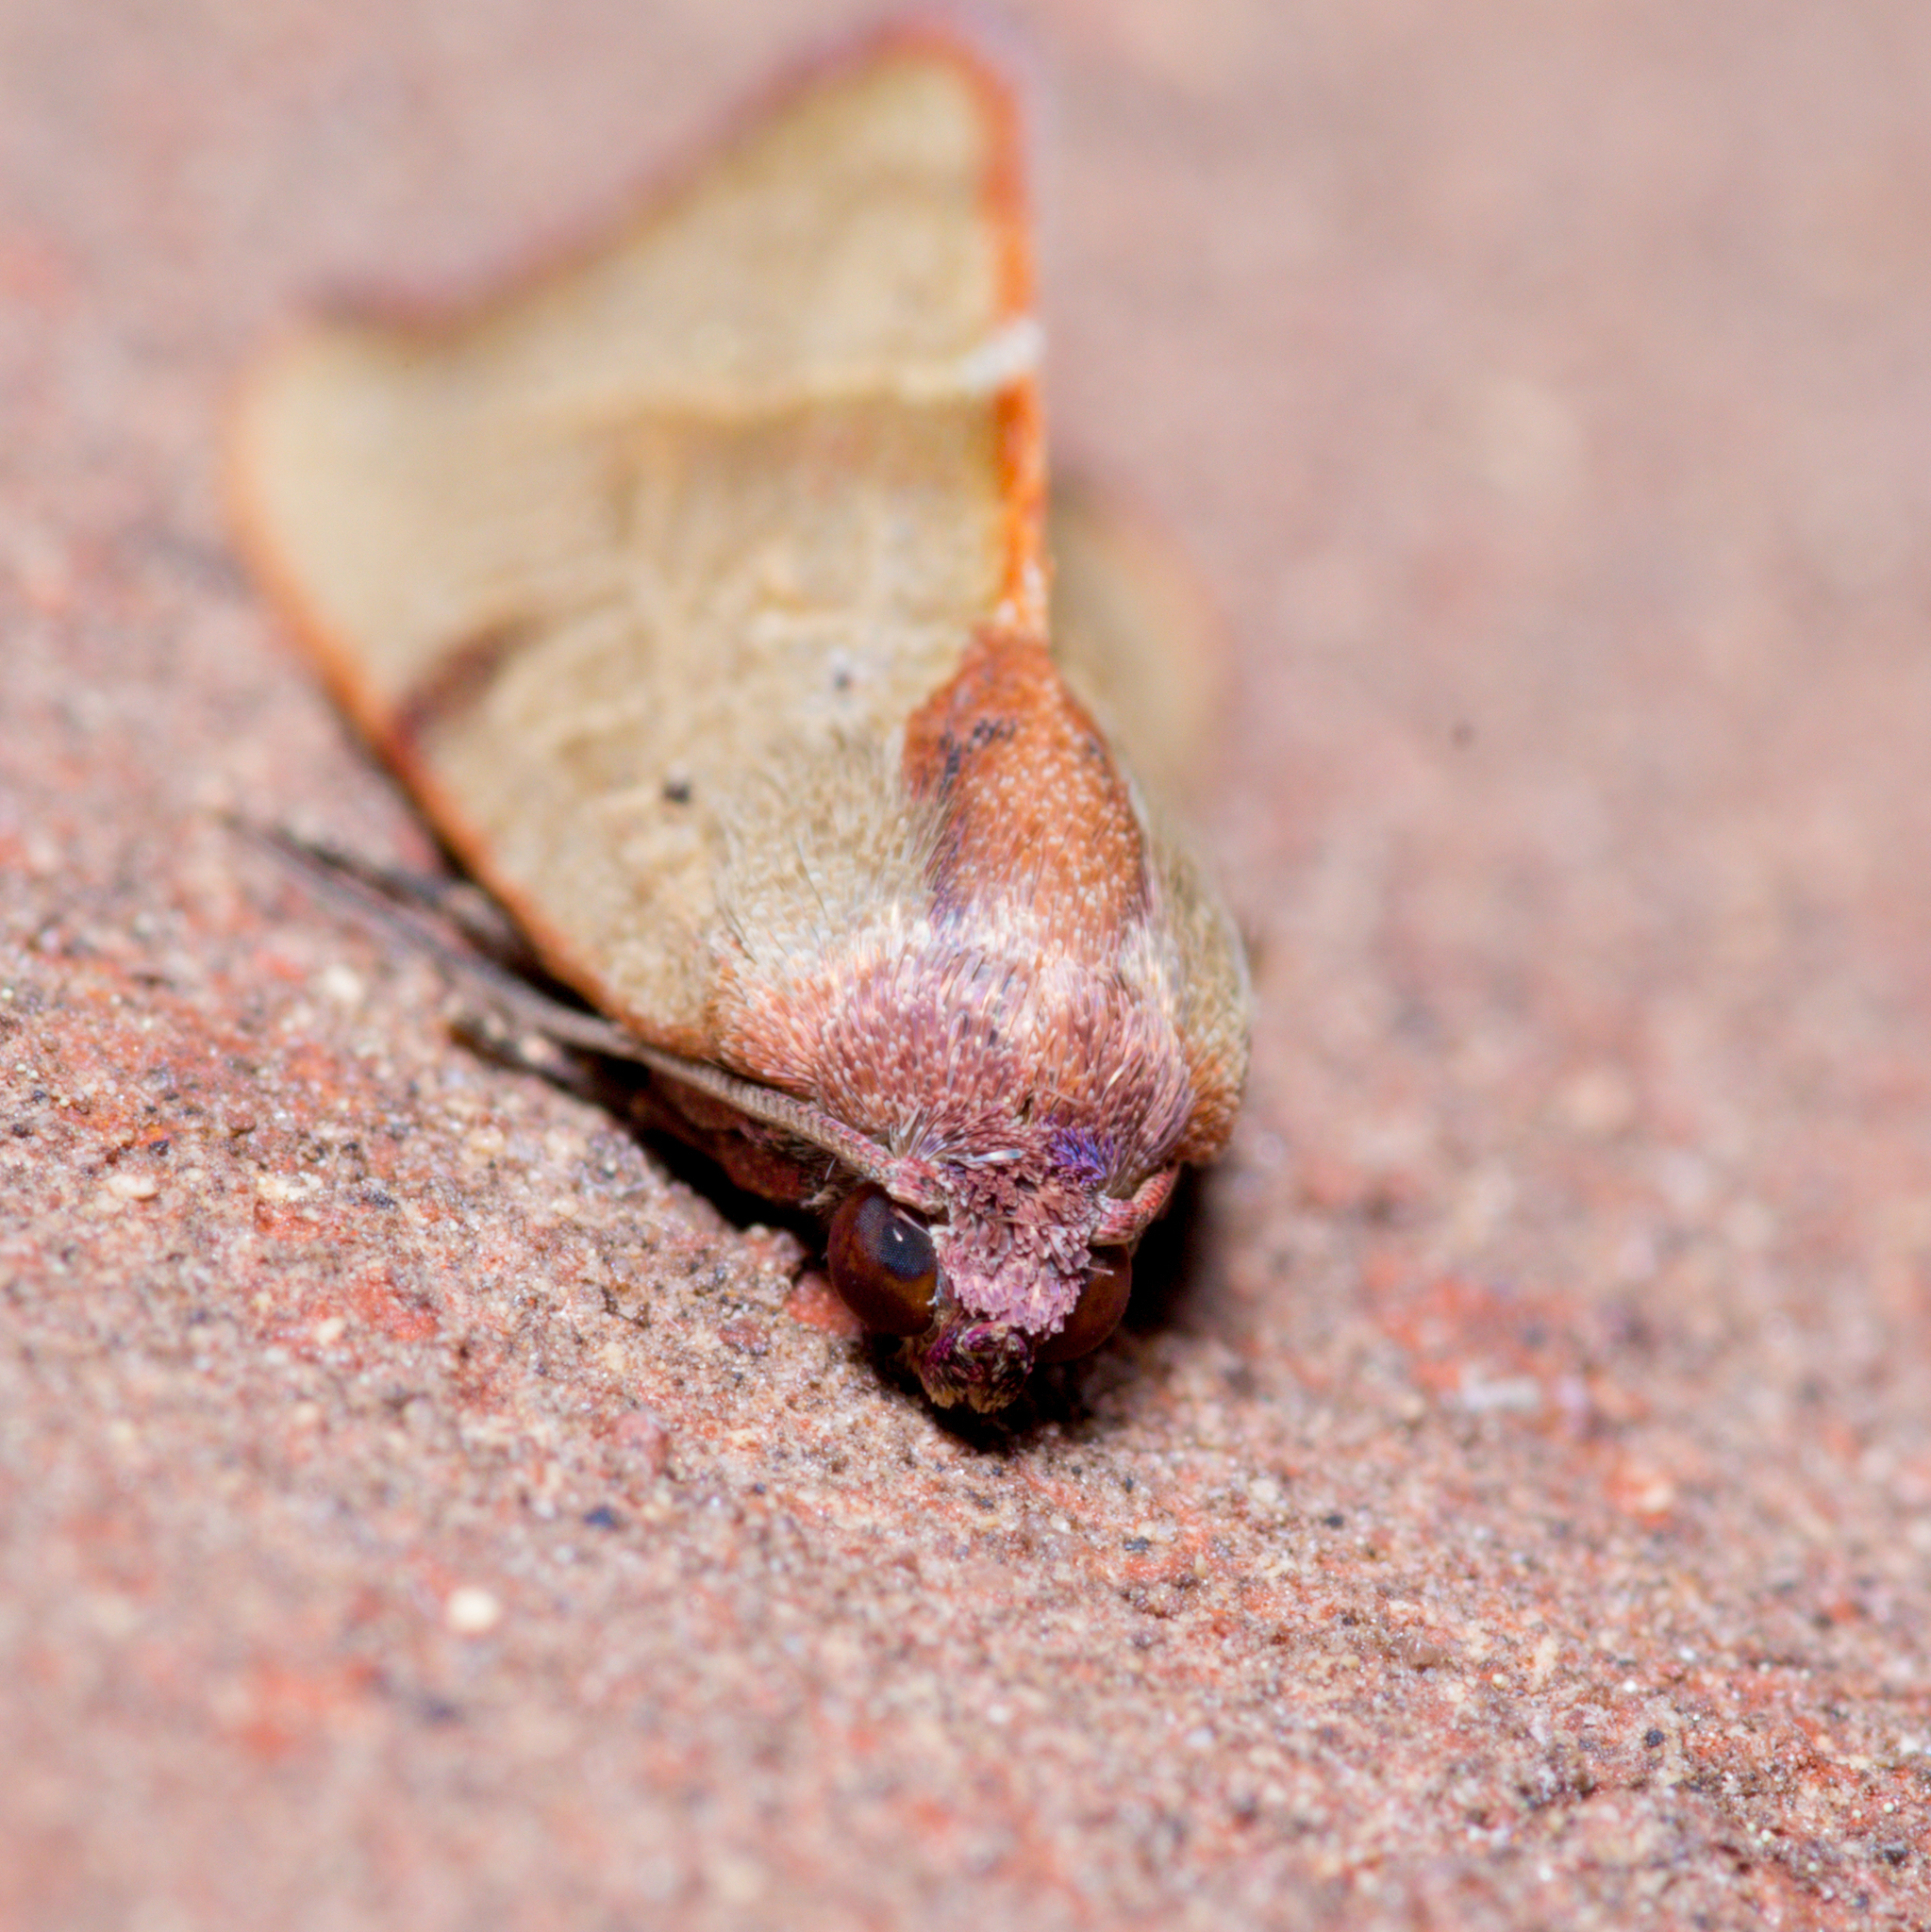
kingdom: Animalia
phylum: Arthropoda
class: Insecta
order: Lepidoptera
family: Noctuidae
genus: Galgula
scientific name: Galgula partita
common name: Wedgeling
